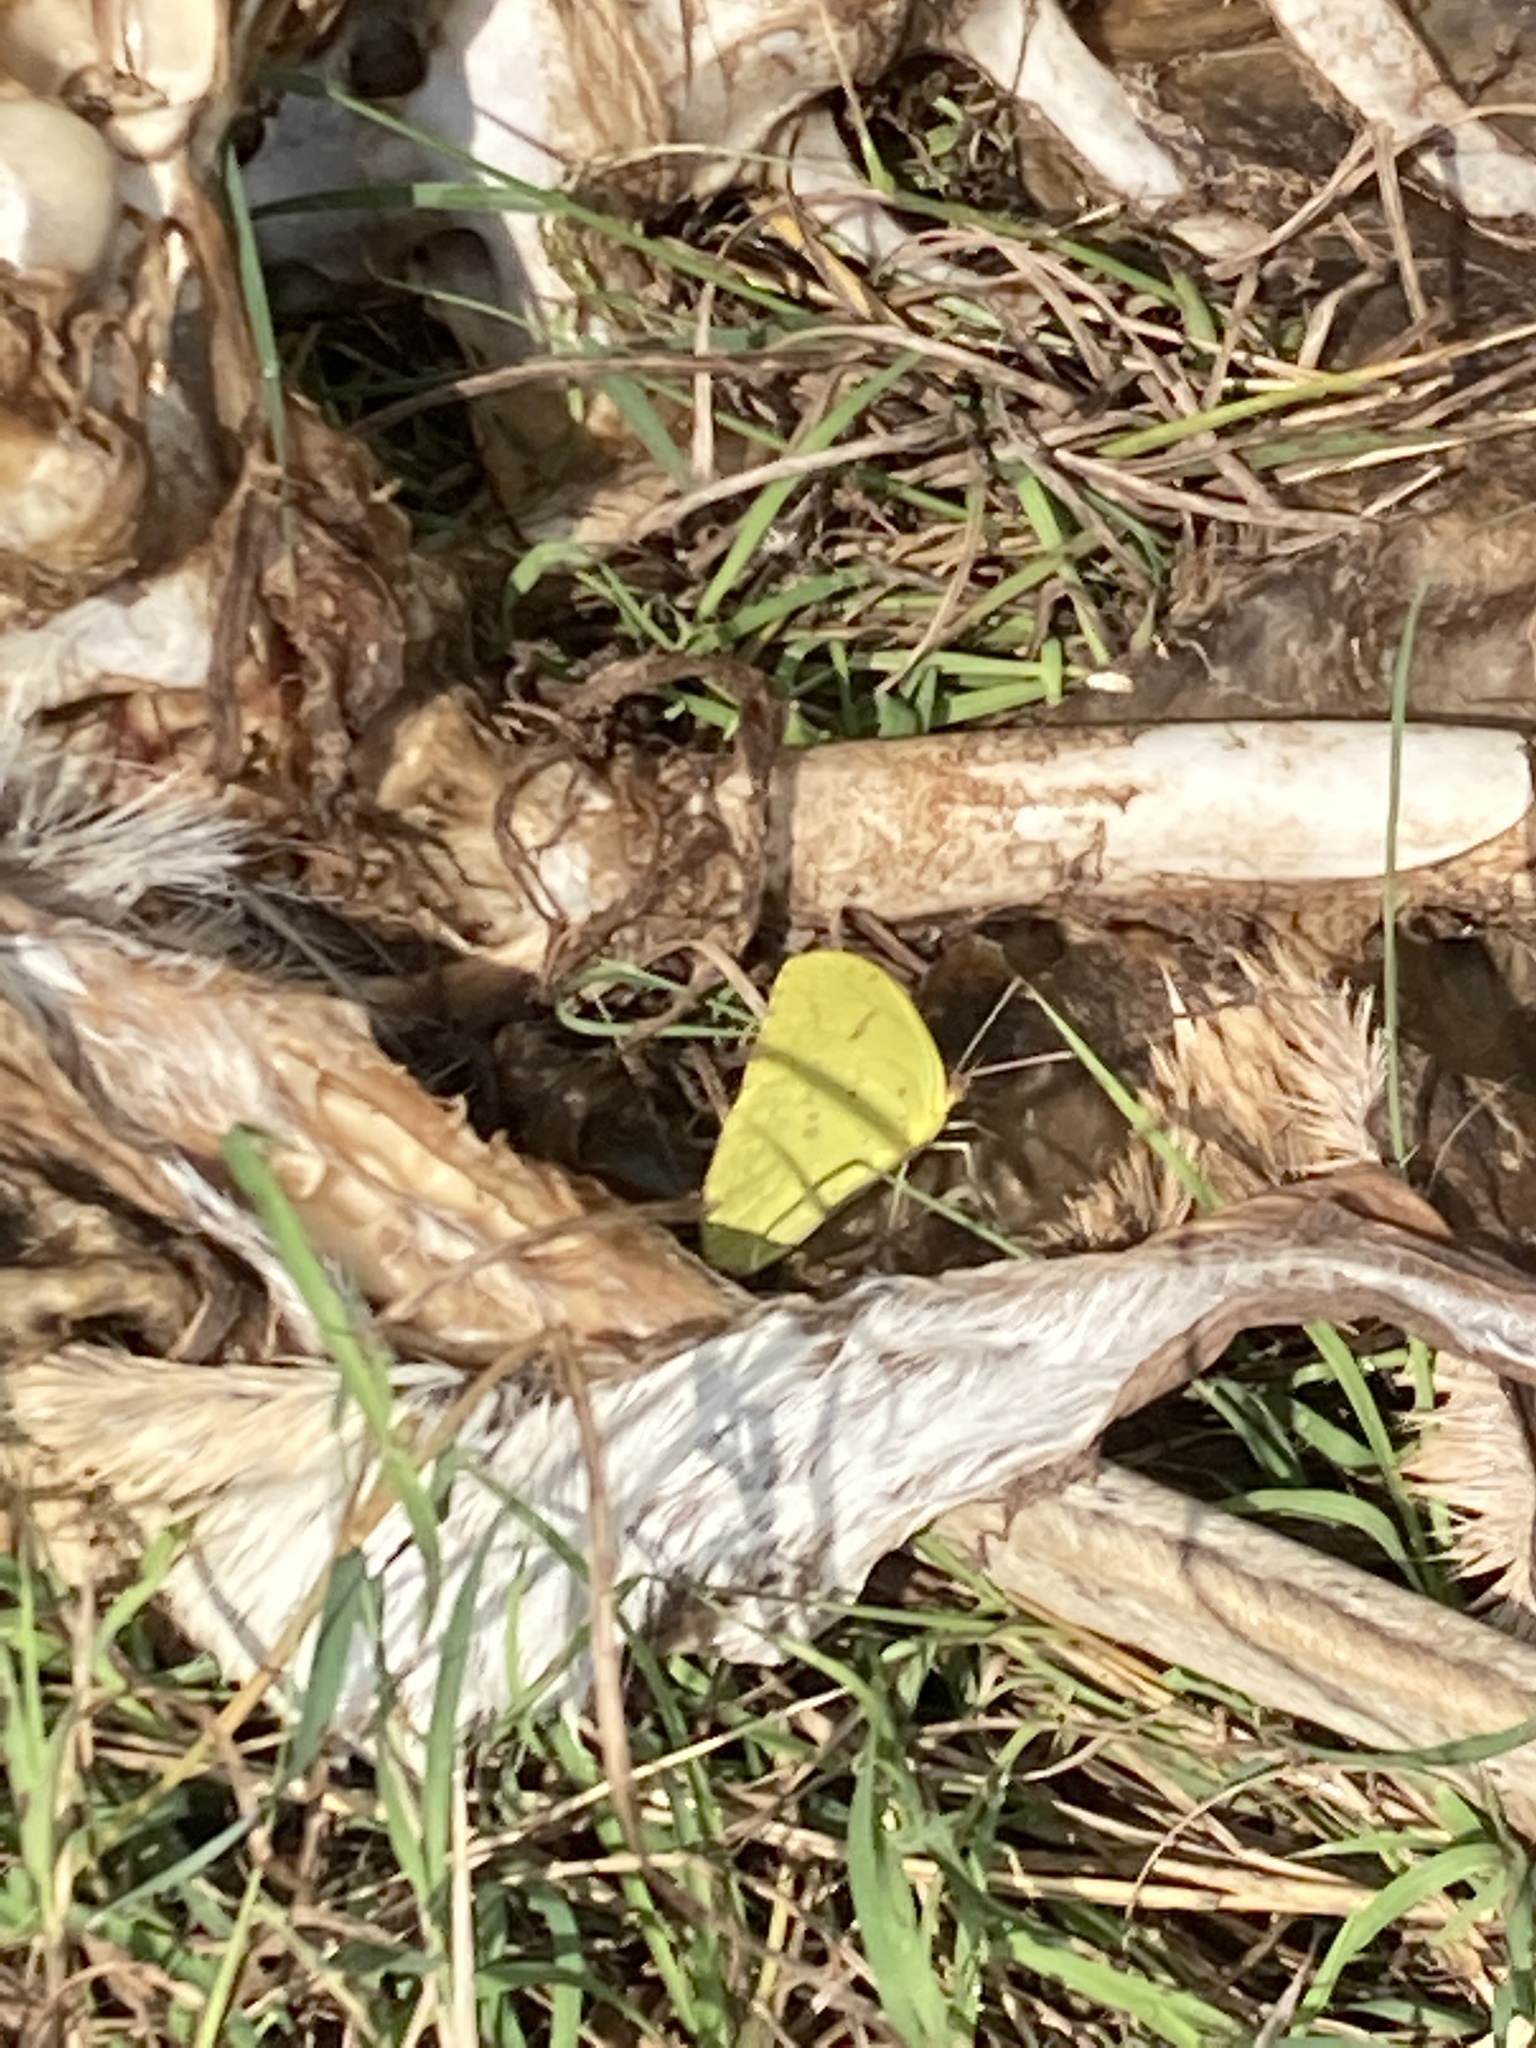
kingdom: Animalia
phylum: Arthropoda
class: Insecta
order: Lepidoptera
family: Pieridae
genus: Phoebis
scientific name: Phoebis sennae
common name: Cloudless sulphur
